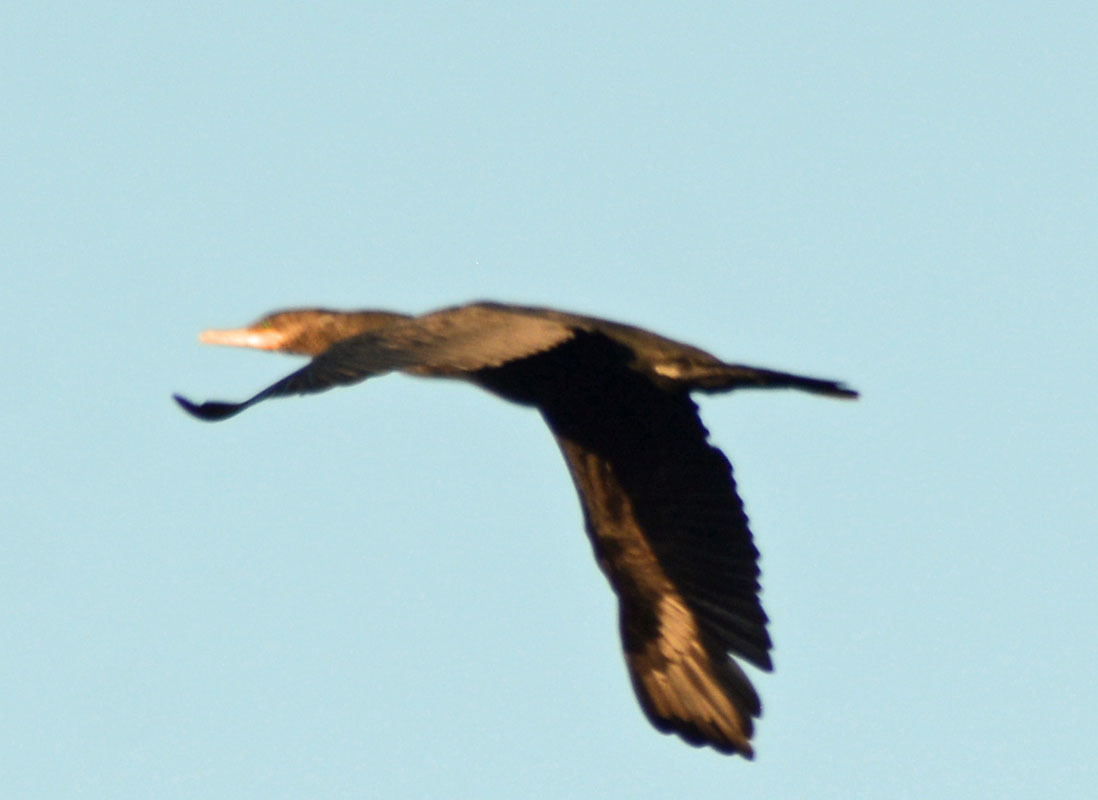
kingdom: Animalia
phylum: Chordata
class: Aves
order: Suliformes
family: Phalacrocoracidae
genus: Phalacrocorax
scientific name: Phalacrocorax brasilianus
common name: Neotropic cormorant
